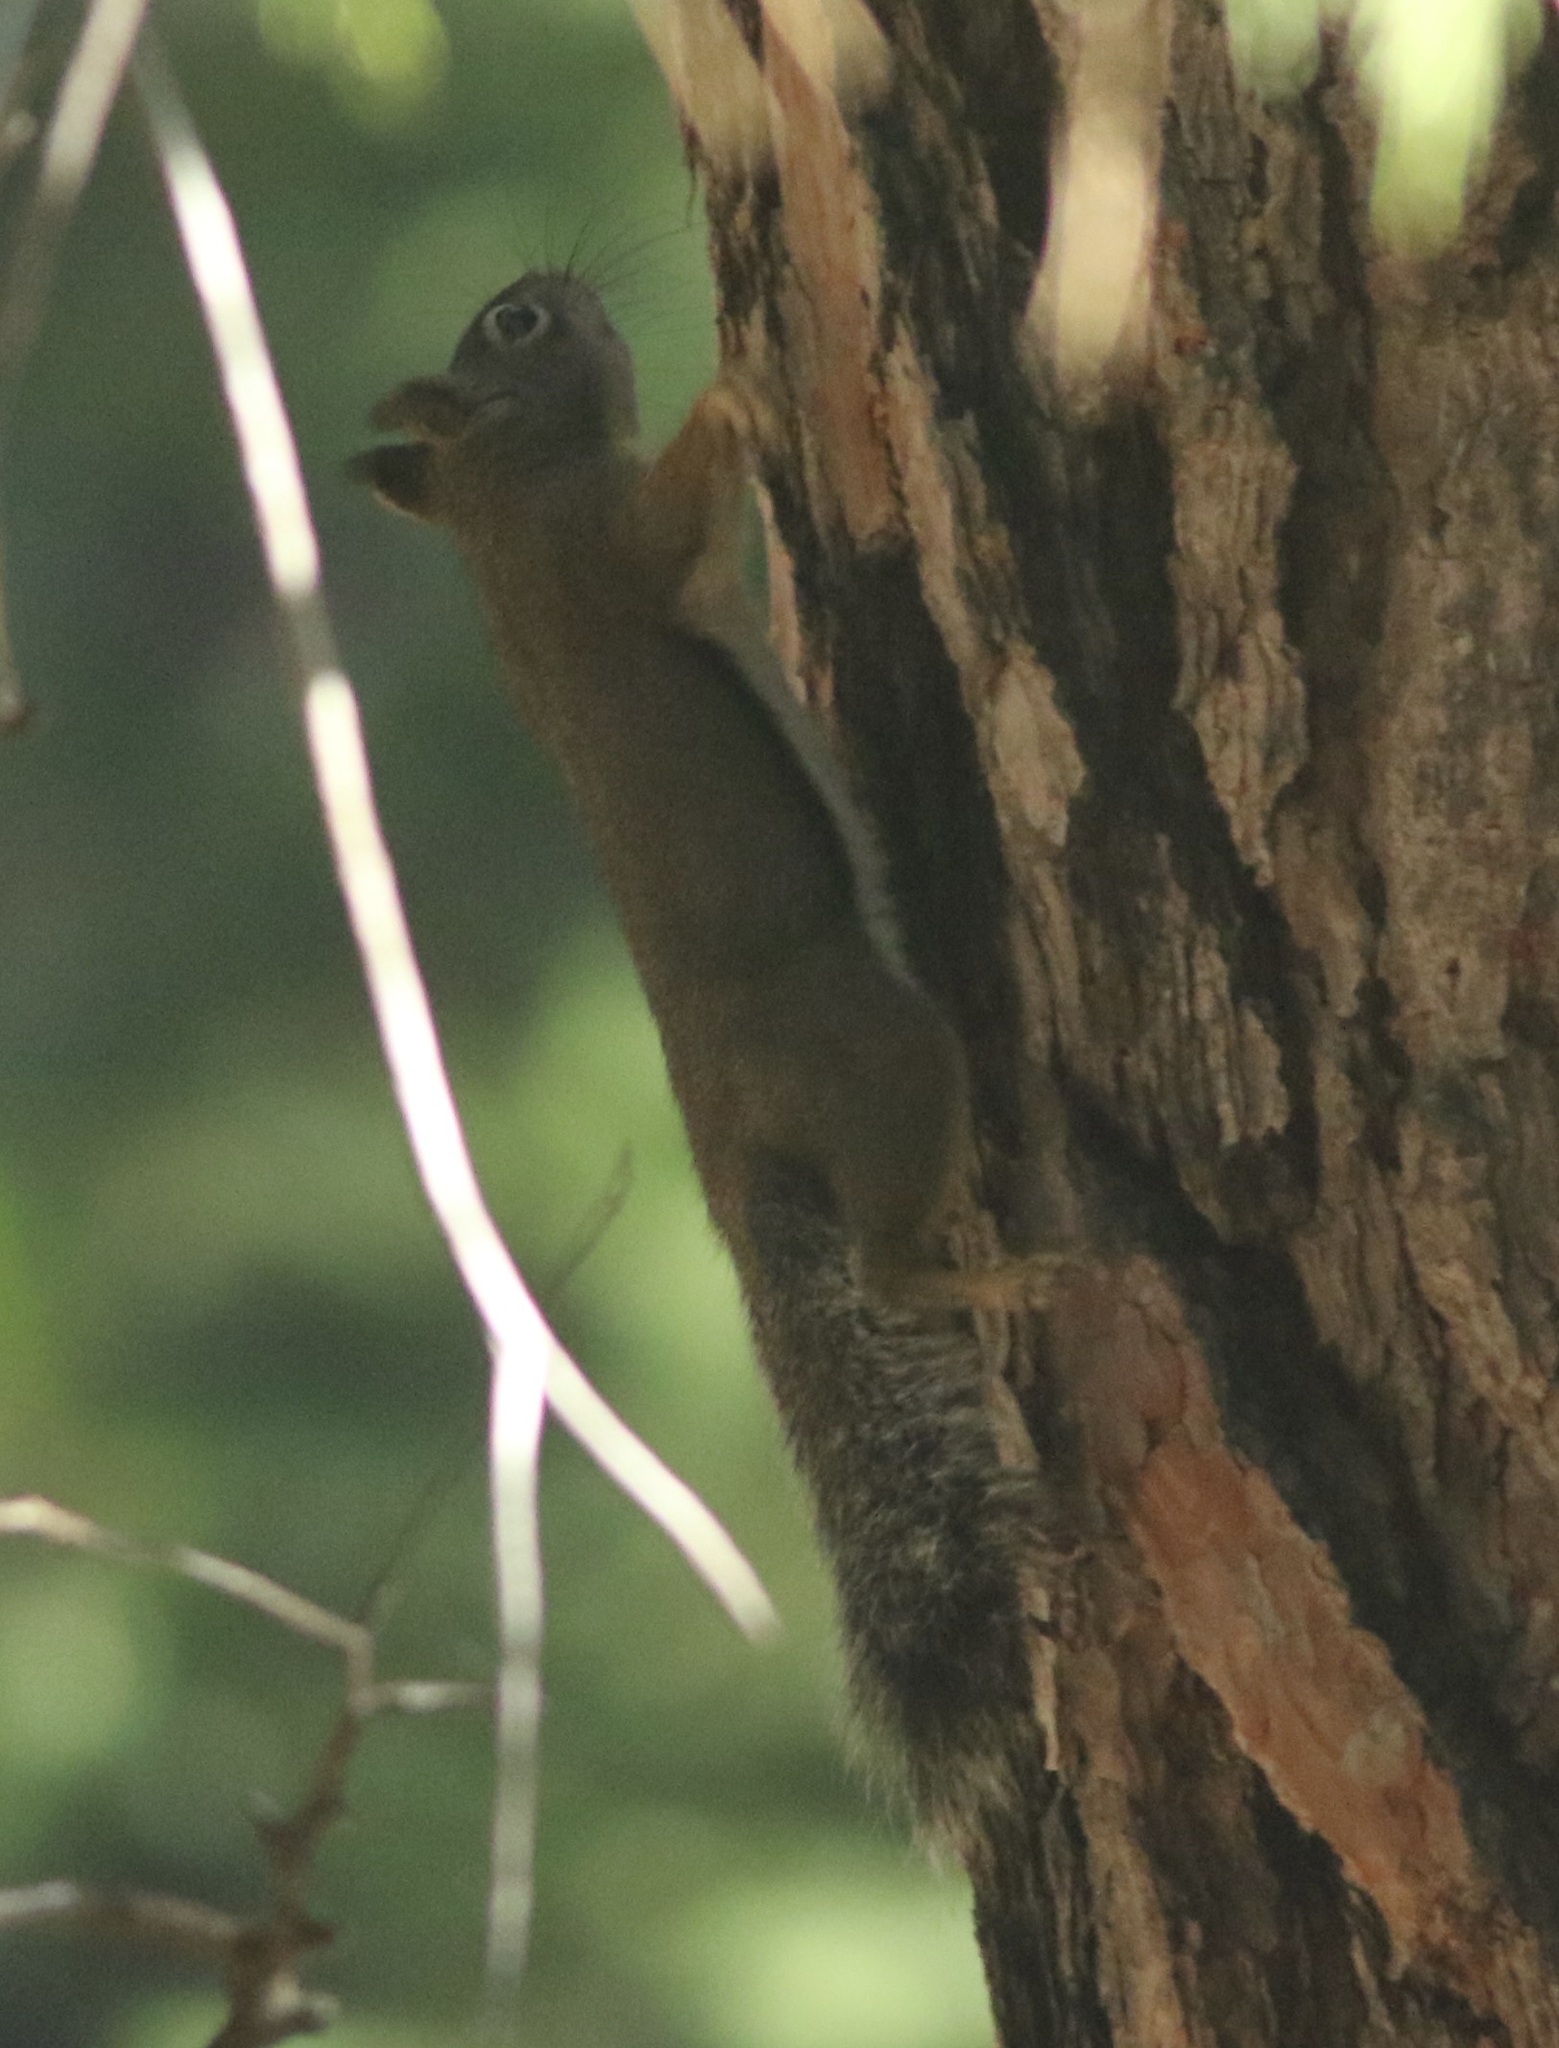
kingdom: Animalia
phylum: Chordata
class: Mammalia
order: Rodentia
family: Sciuridae
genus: Tamiasciurus
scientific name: Tamiasciurus douglasii
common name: Douglas's squirrel
